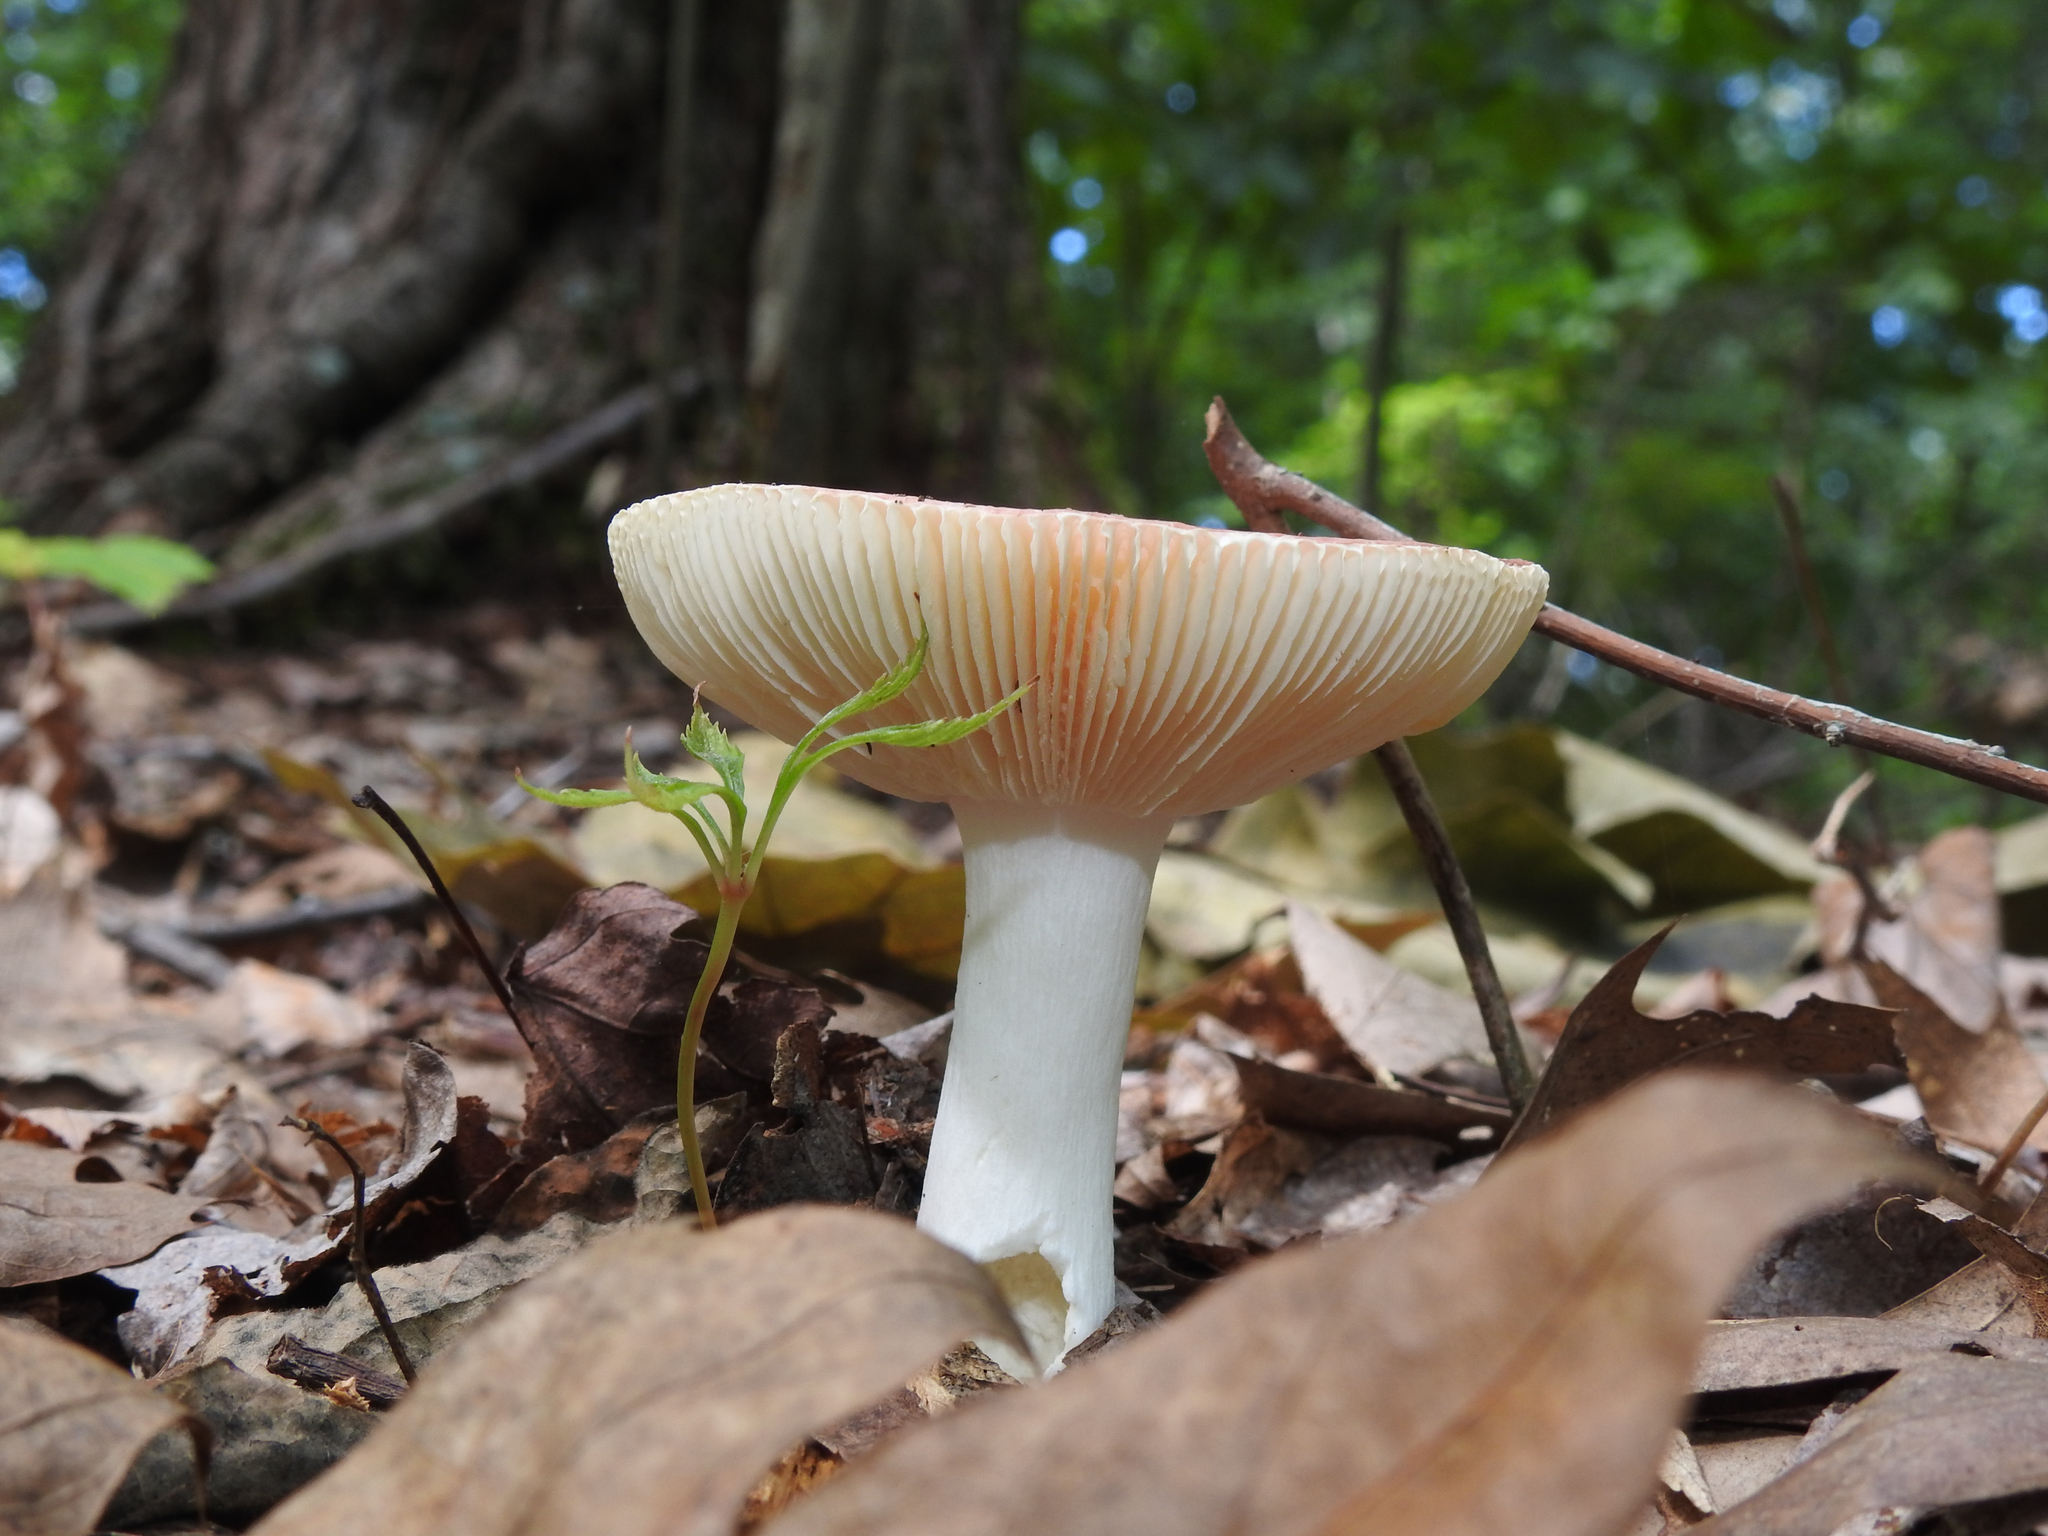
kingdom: Fungi
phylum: Basidiomycota
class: Agaricomycetes
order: Russulales
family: Russulaceae
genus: Russula
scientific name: Russula
